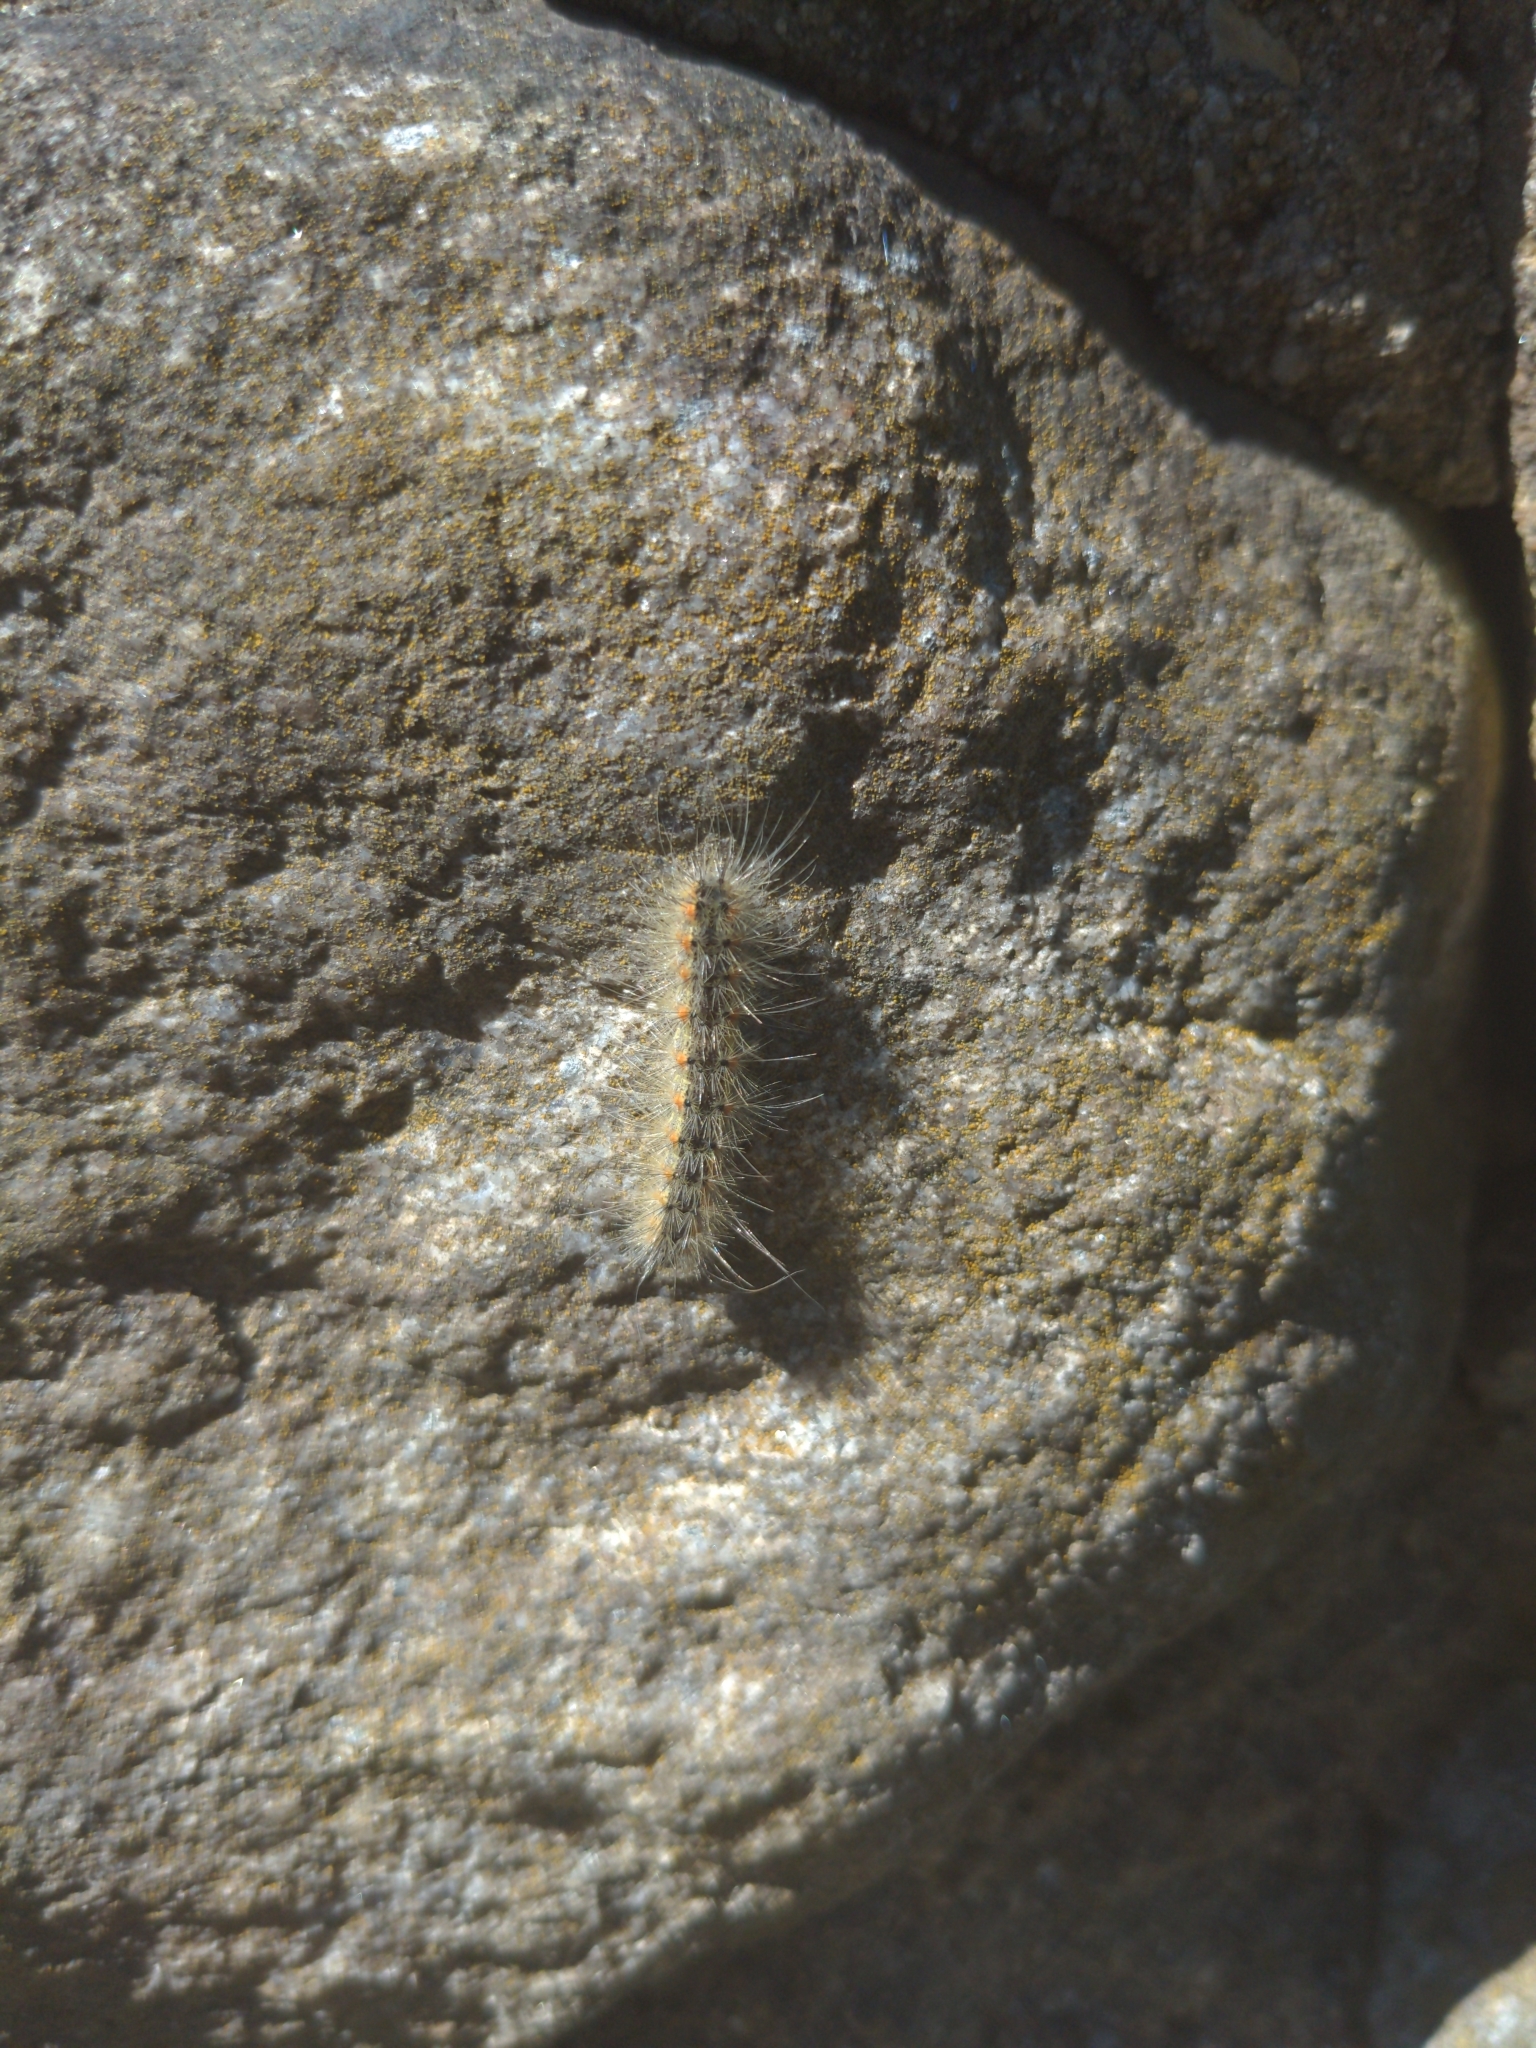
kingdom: Animalia
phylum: Arthropoda
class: Insecta
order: Lepidoptera
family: Erebidae
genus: Hyphantria
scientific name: Hyphantria cunea
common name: American white moth
